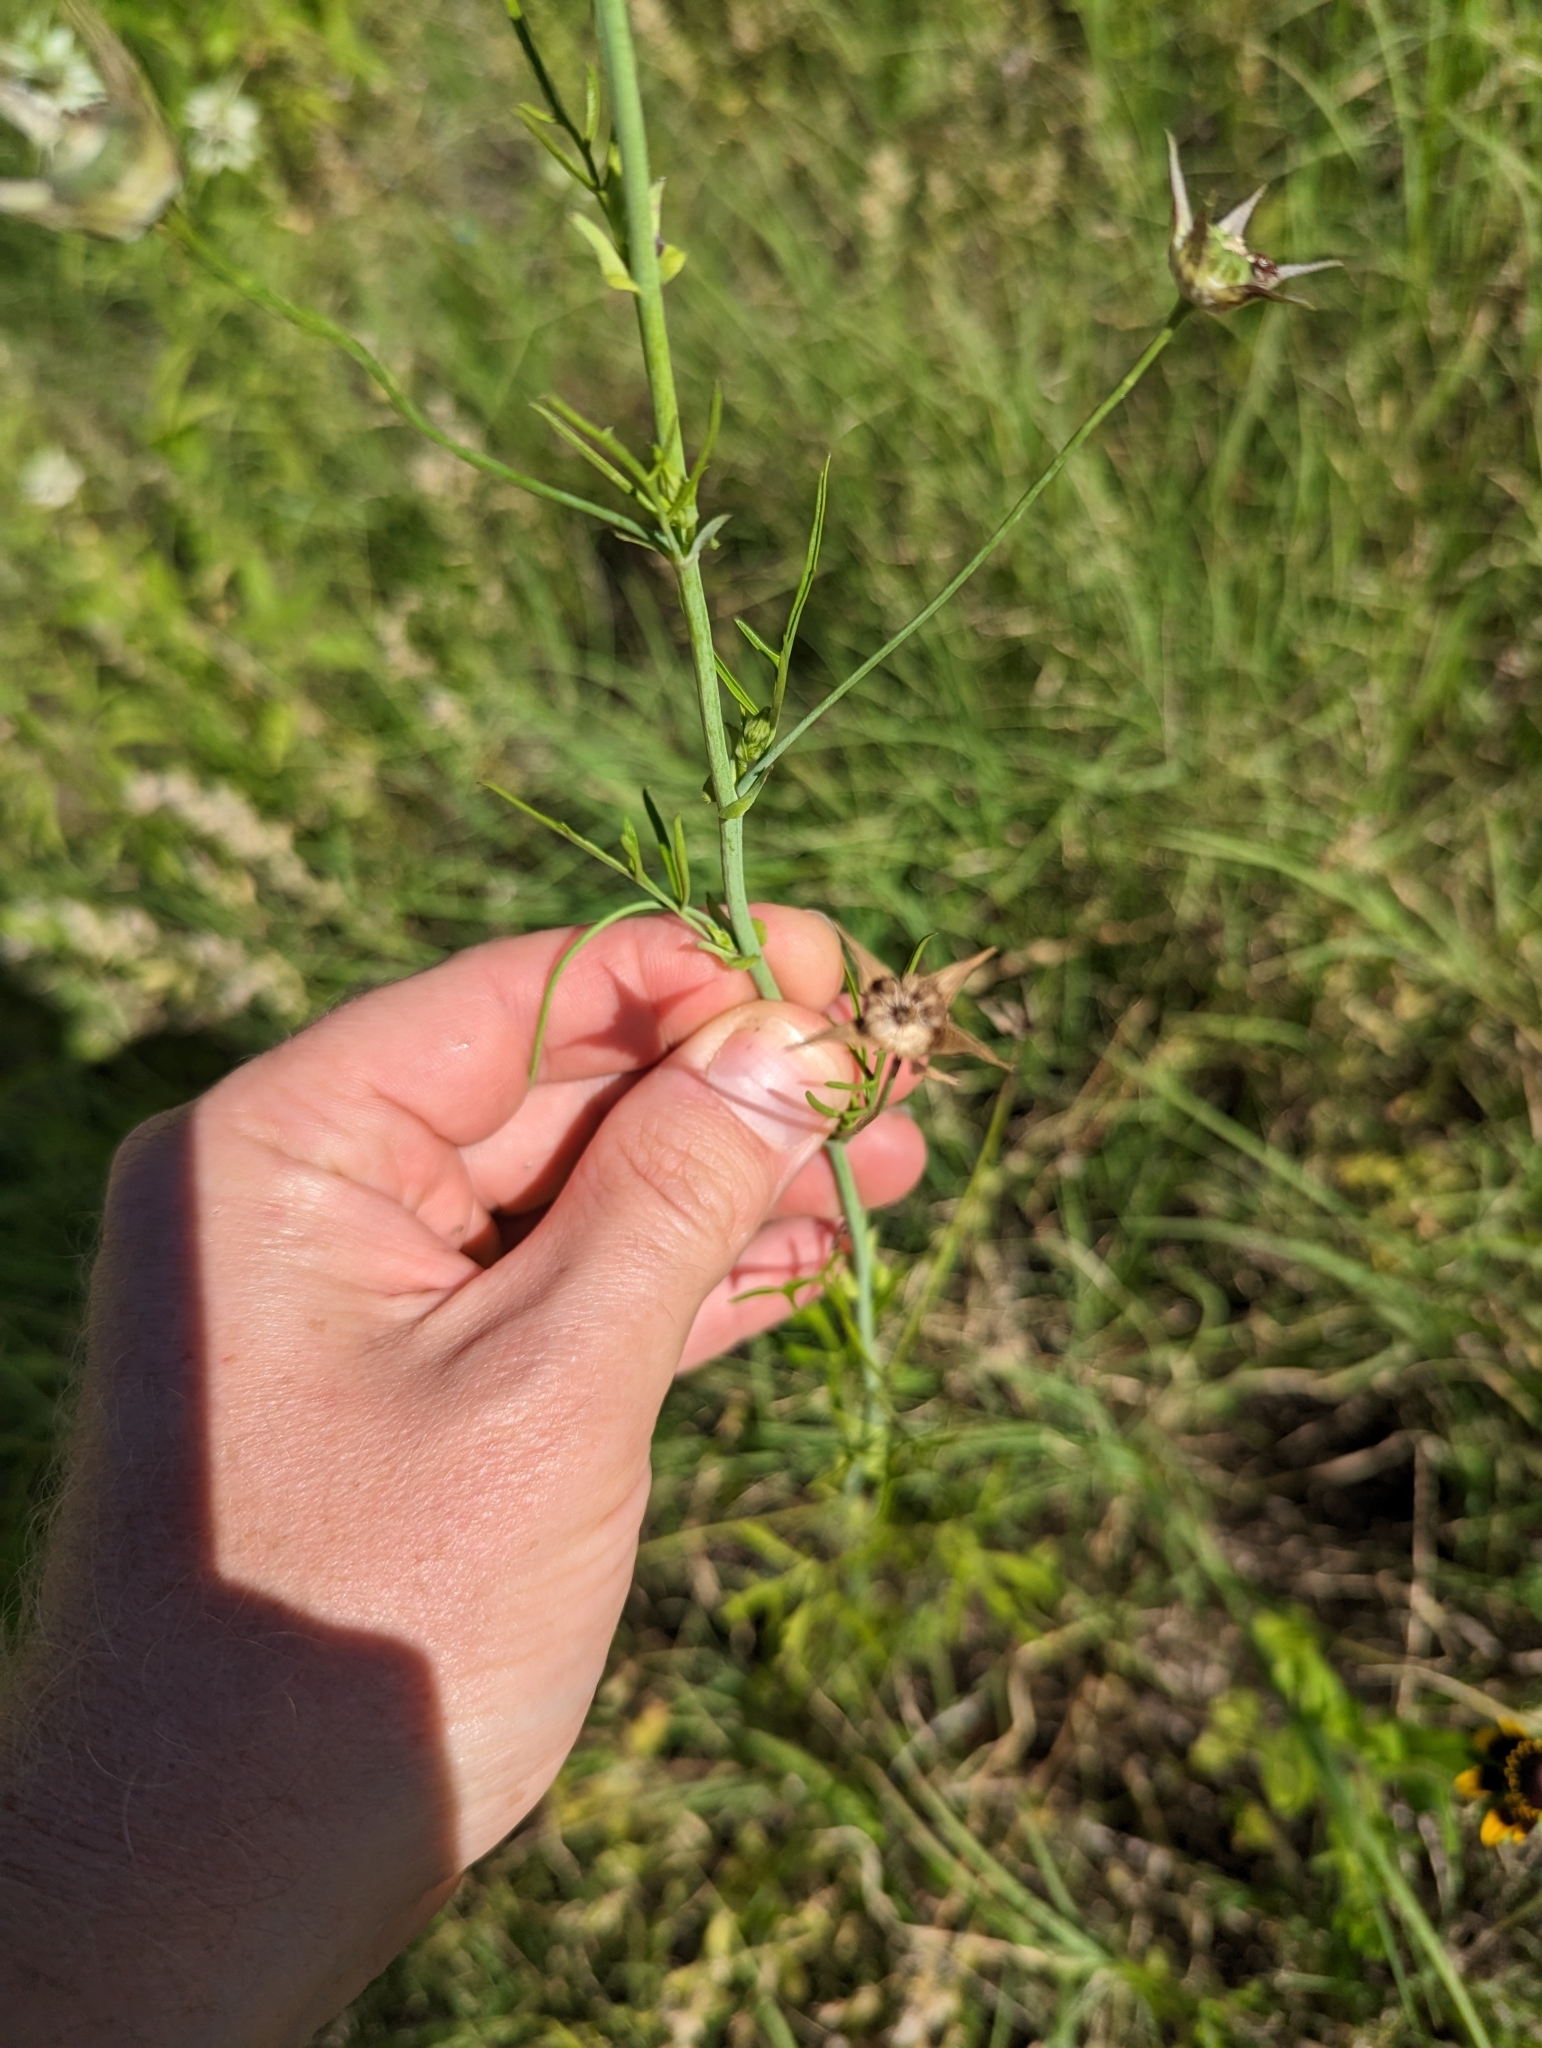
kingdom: Plantae
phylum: Tracheophyta
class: Magnoliopsida
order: Malvales
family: Malvaceae
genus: Callirhoe
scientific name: Callirhoe leiocarpa
